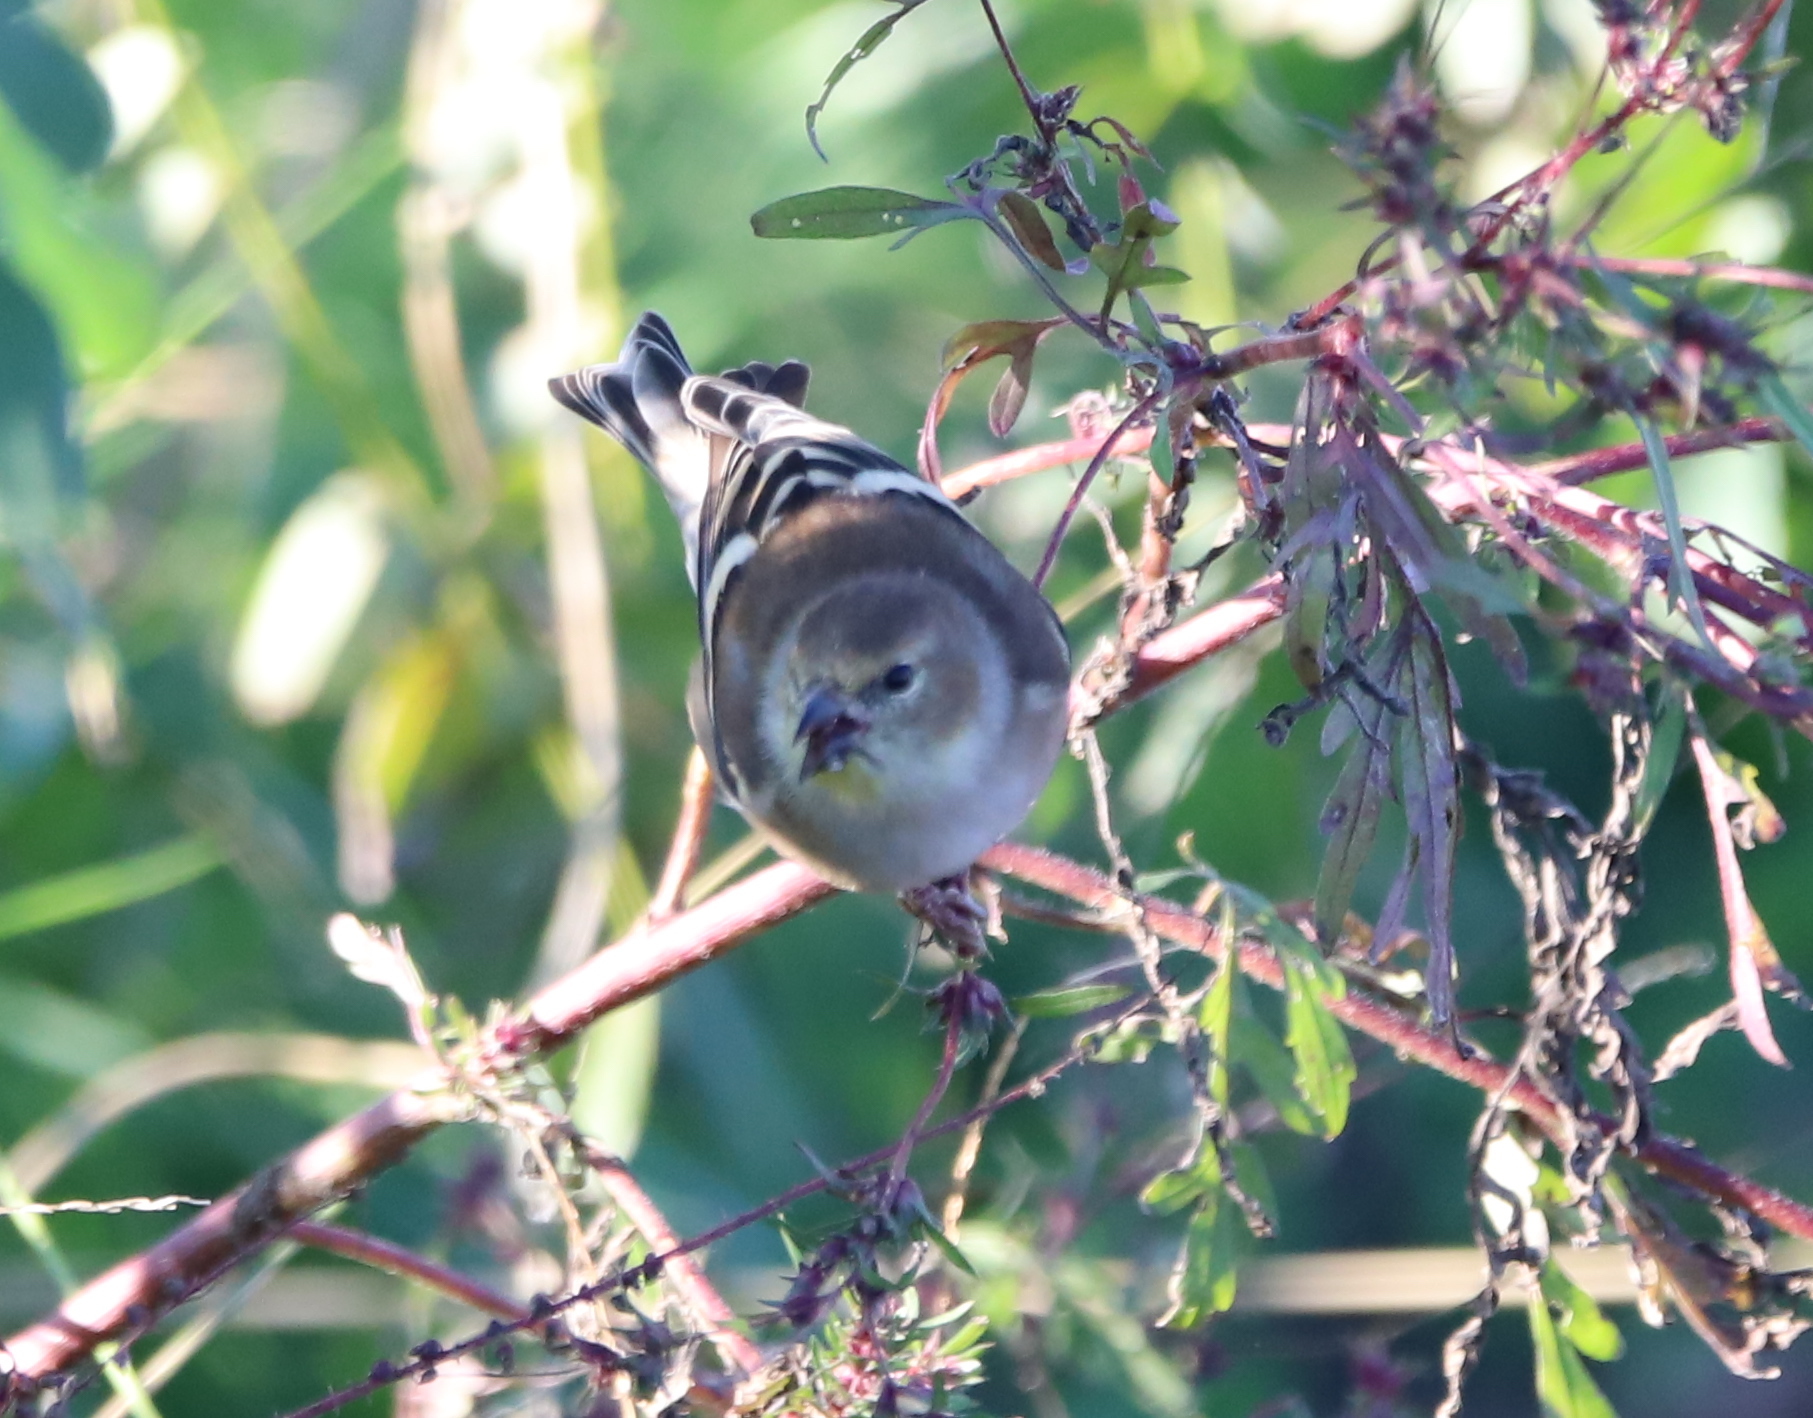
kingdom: Animalia
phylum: Chordata
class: Aves
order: Passeriformes
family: Fringillidae
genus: Spinus
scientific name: Spinus tristis
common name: American goldfinch
